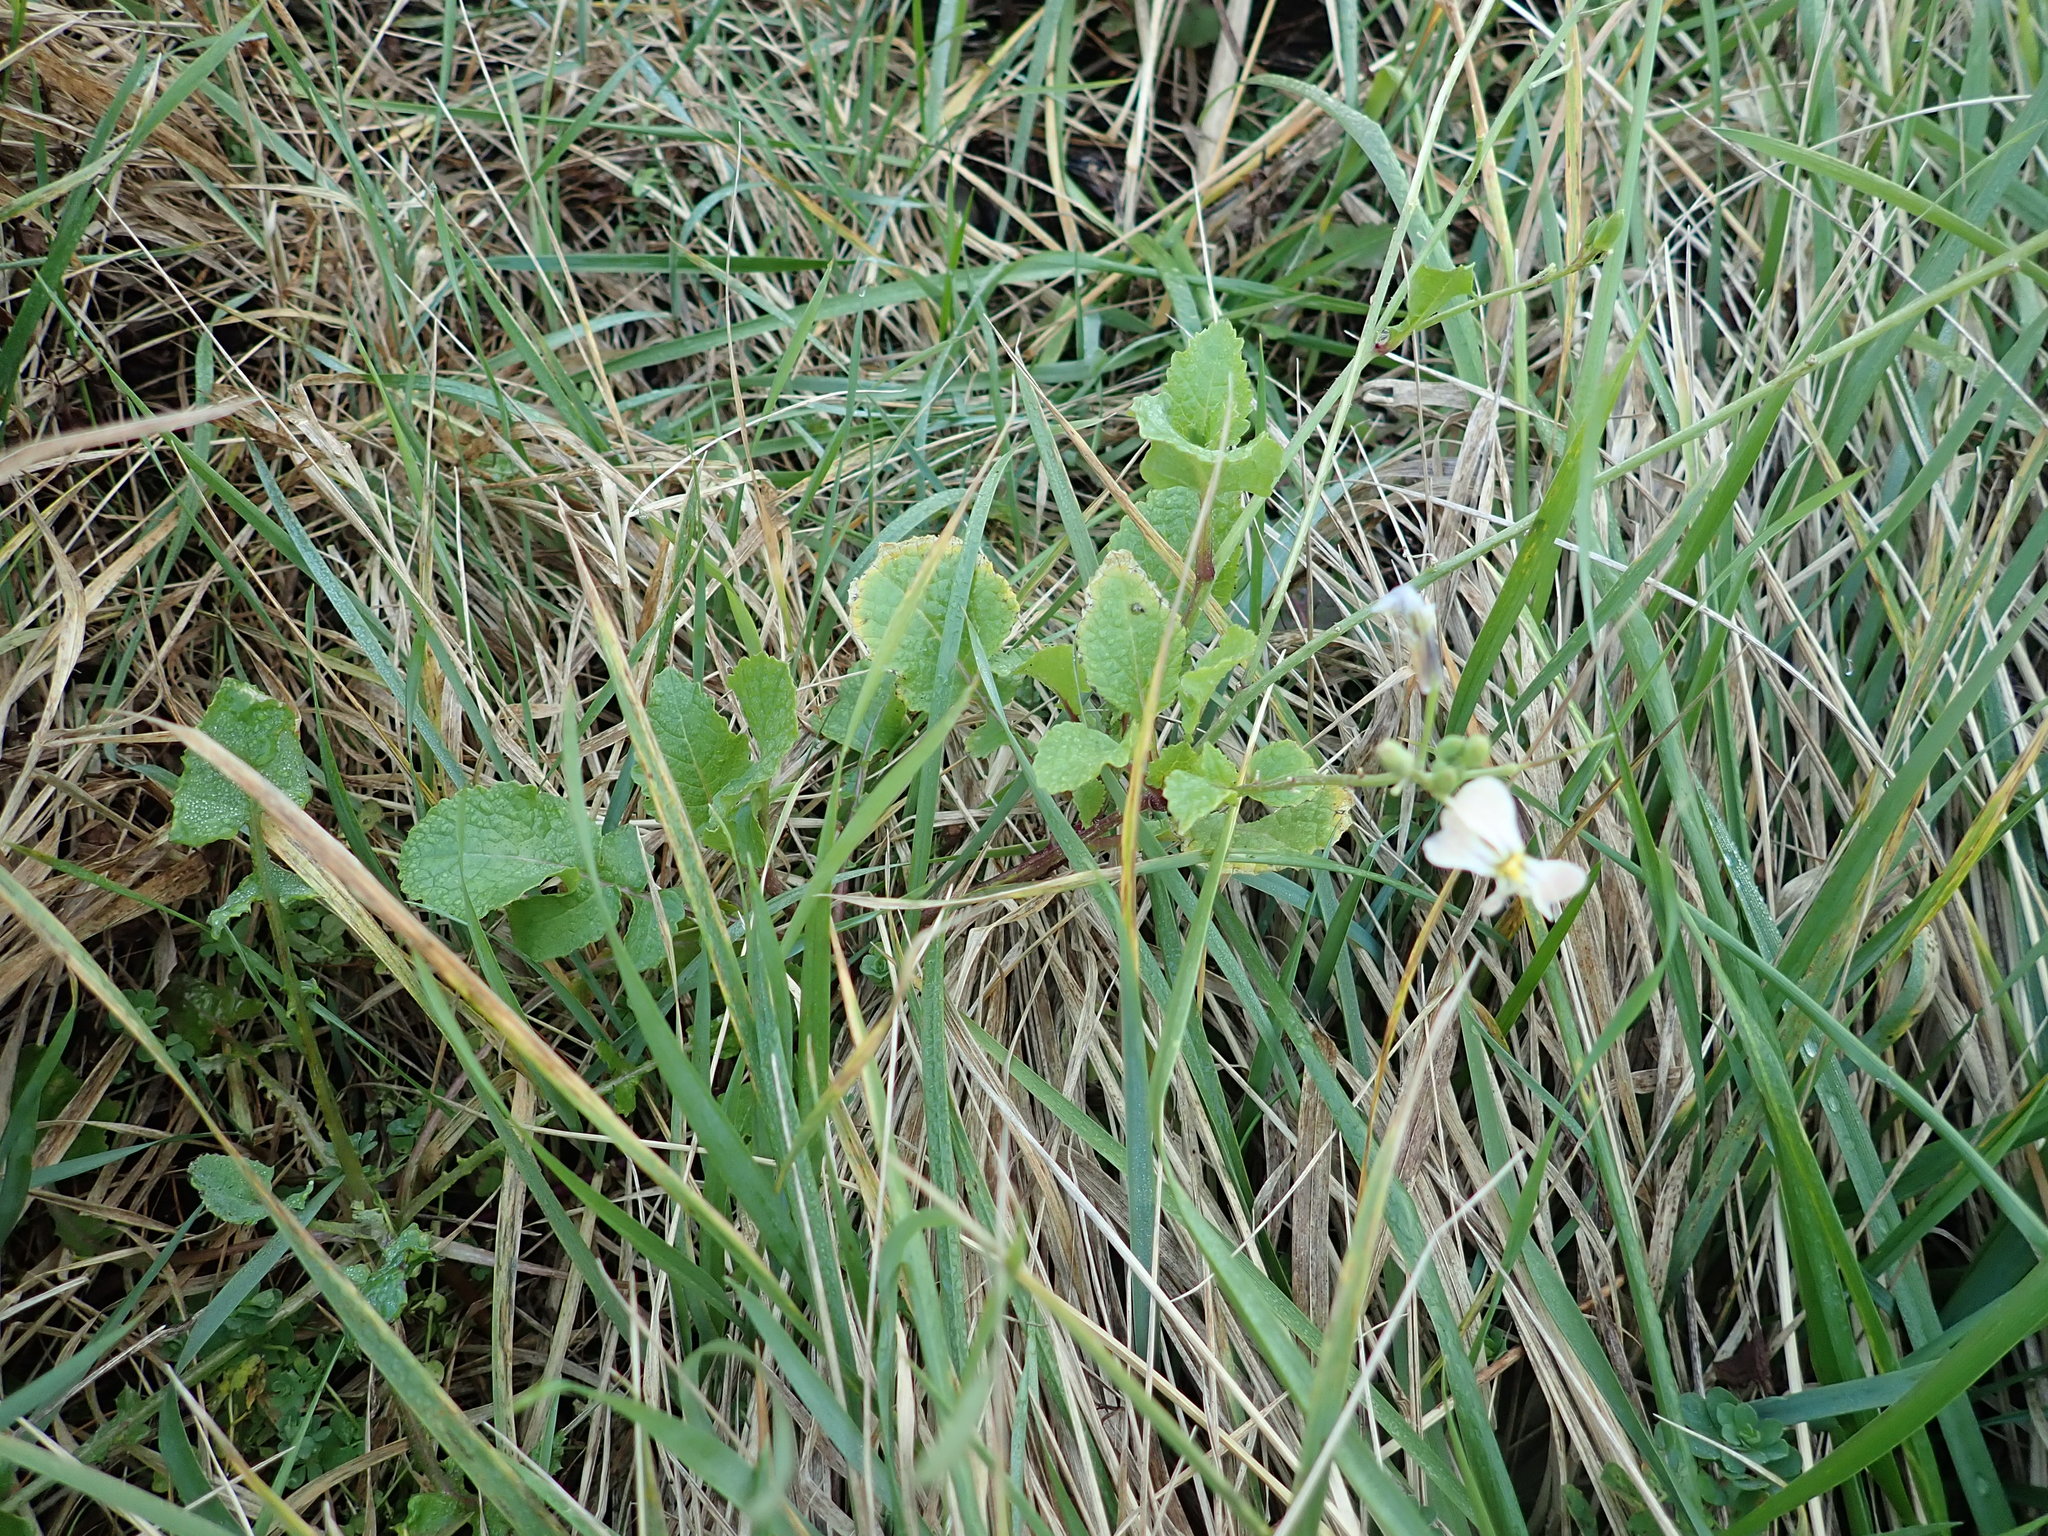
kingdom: Plantae
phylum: Tracheophyta
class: Magnoliopsida
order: Brassicales
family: Brassicaceae
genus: Raphanus
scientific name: Raphanus raphanistrum
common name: Wild radish
